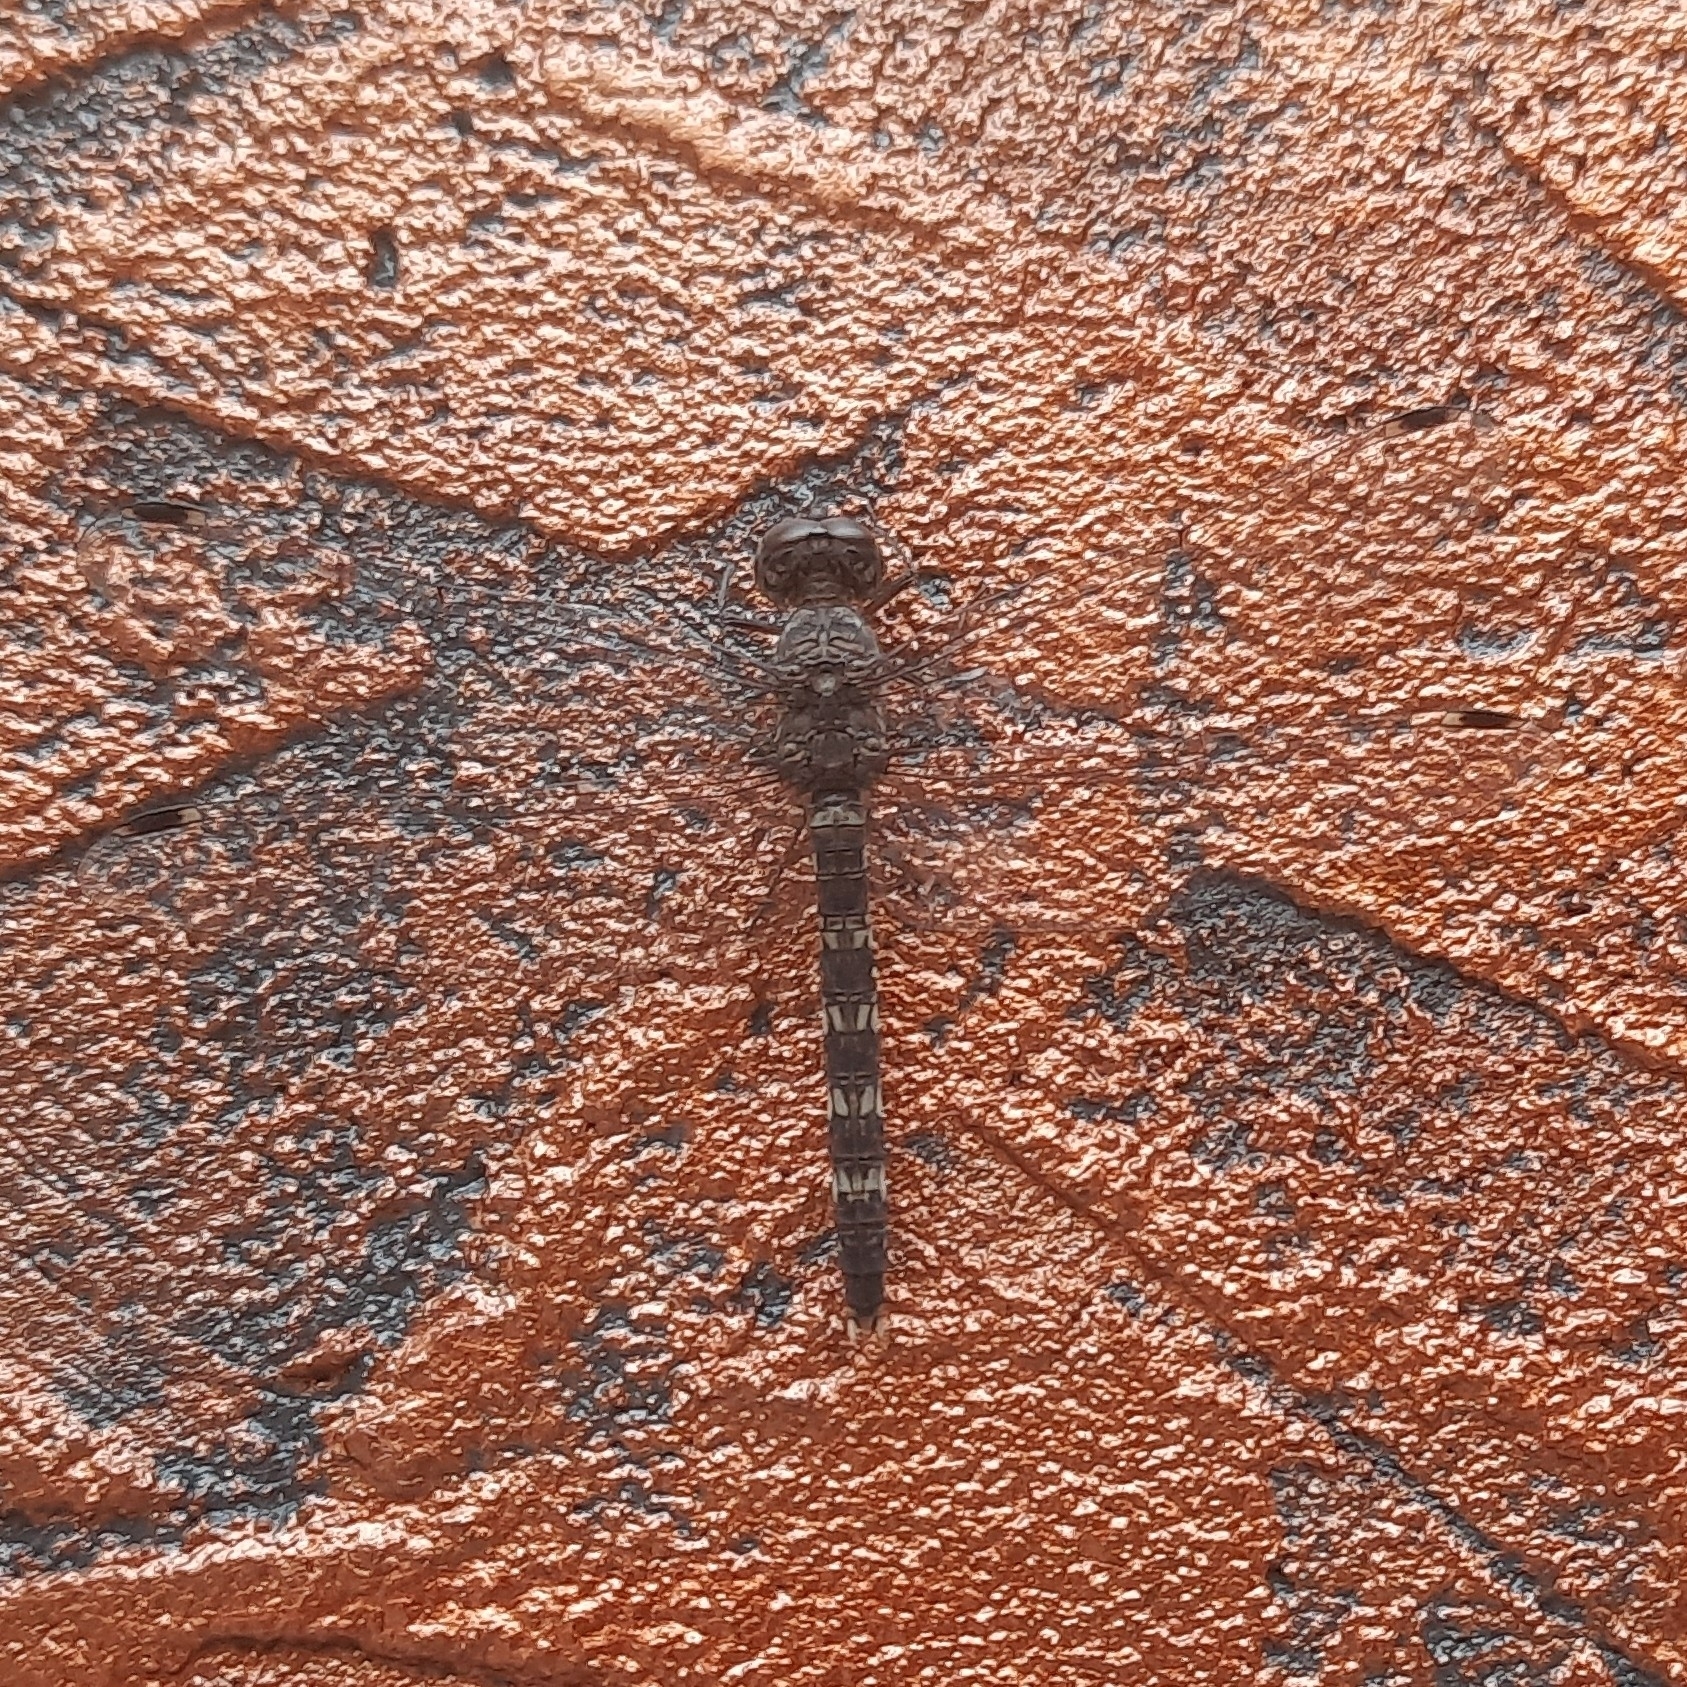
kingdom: Animalia
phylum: Arthropoda
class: Insecta
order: Odonata
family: Libellulidae
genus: Bradinopyga
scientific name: Bradinopyga geminata
